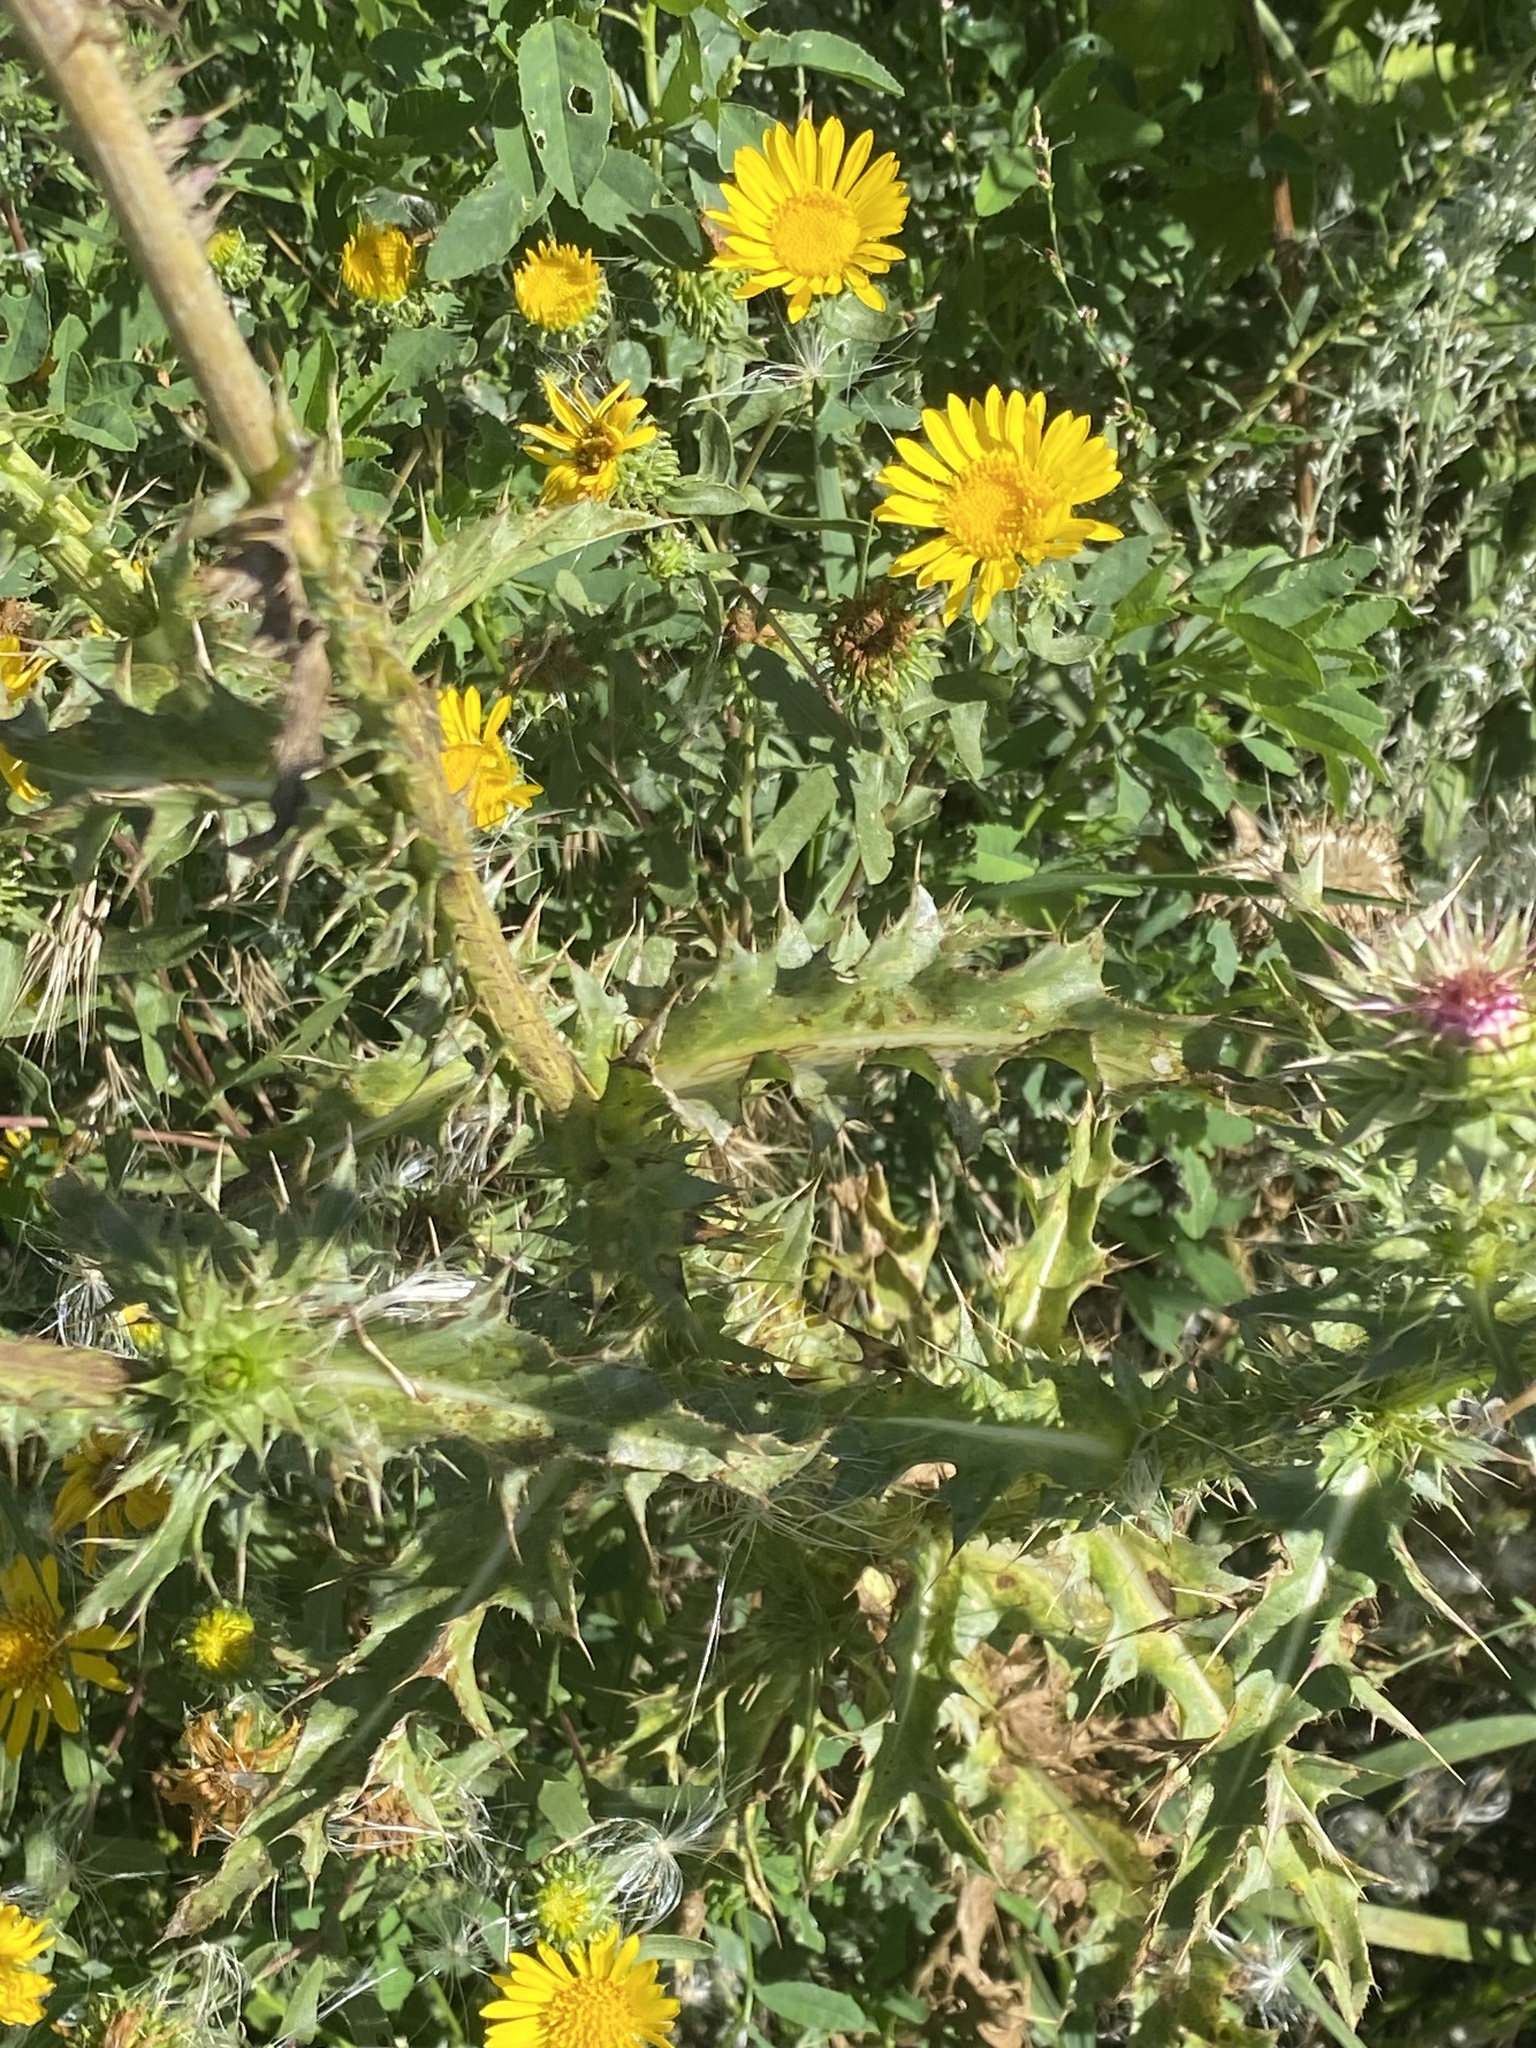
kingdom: Plantae
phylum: Tracheophyta
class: Magnoliopsida
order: Asterales
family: Asteraceae
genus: Carduus
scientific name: Carduus nutans
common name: Musk thistle
